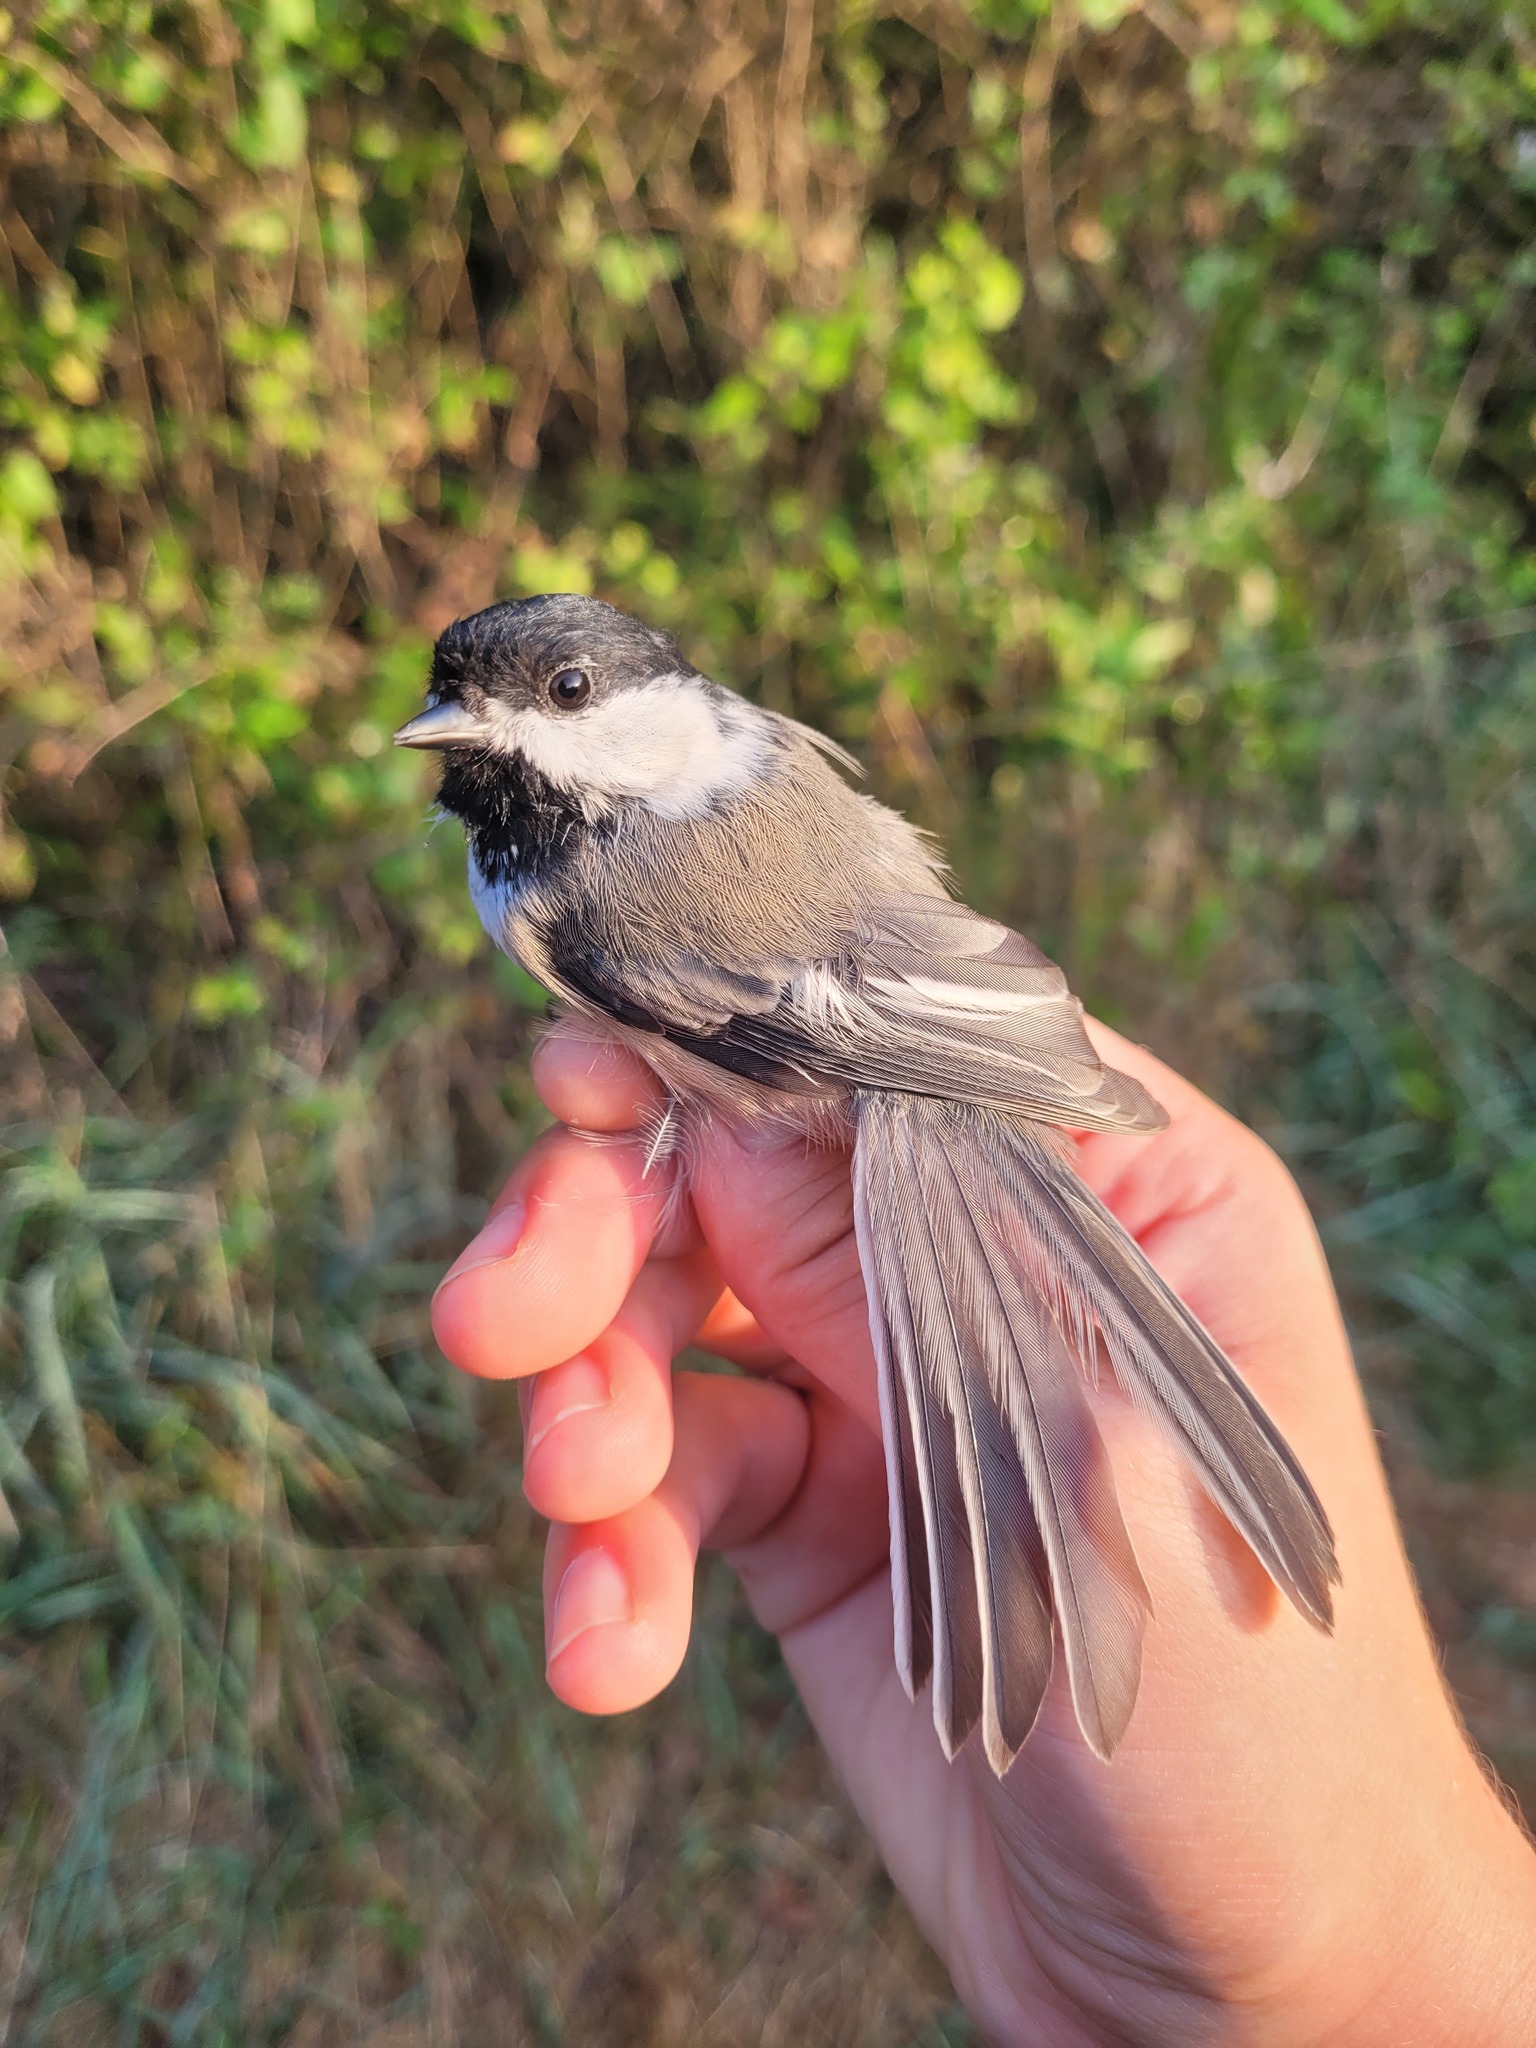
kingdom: Animalia
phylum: Chordata
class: Aves
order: Passeriformes
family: Paridae
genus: Poecile
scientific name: Poecile atricapillus
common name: Black-capped chickadee
